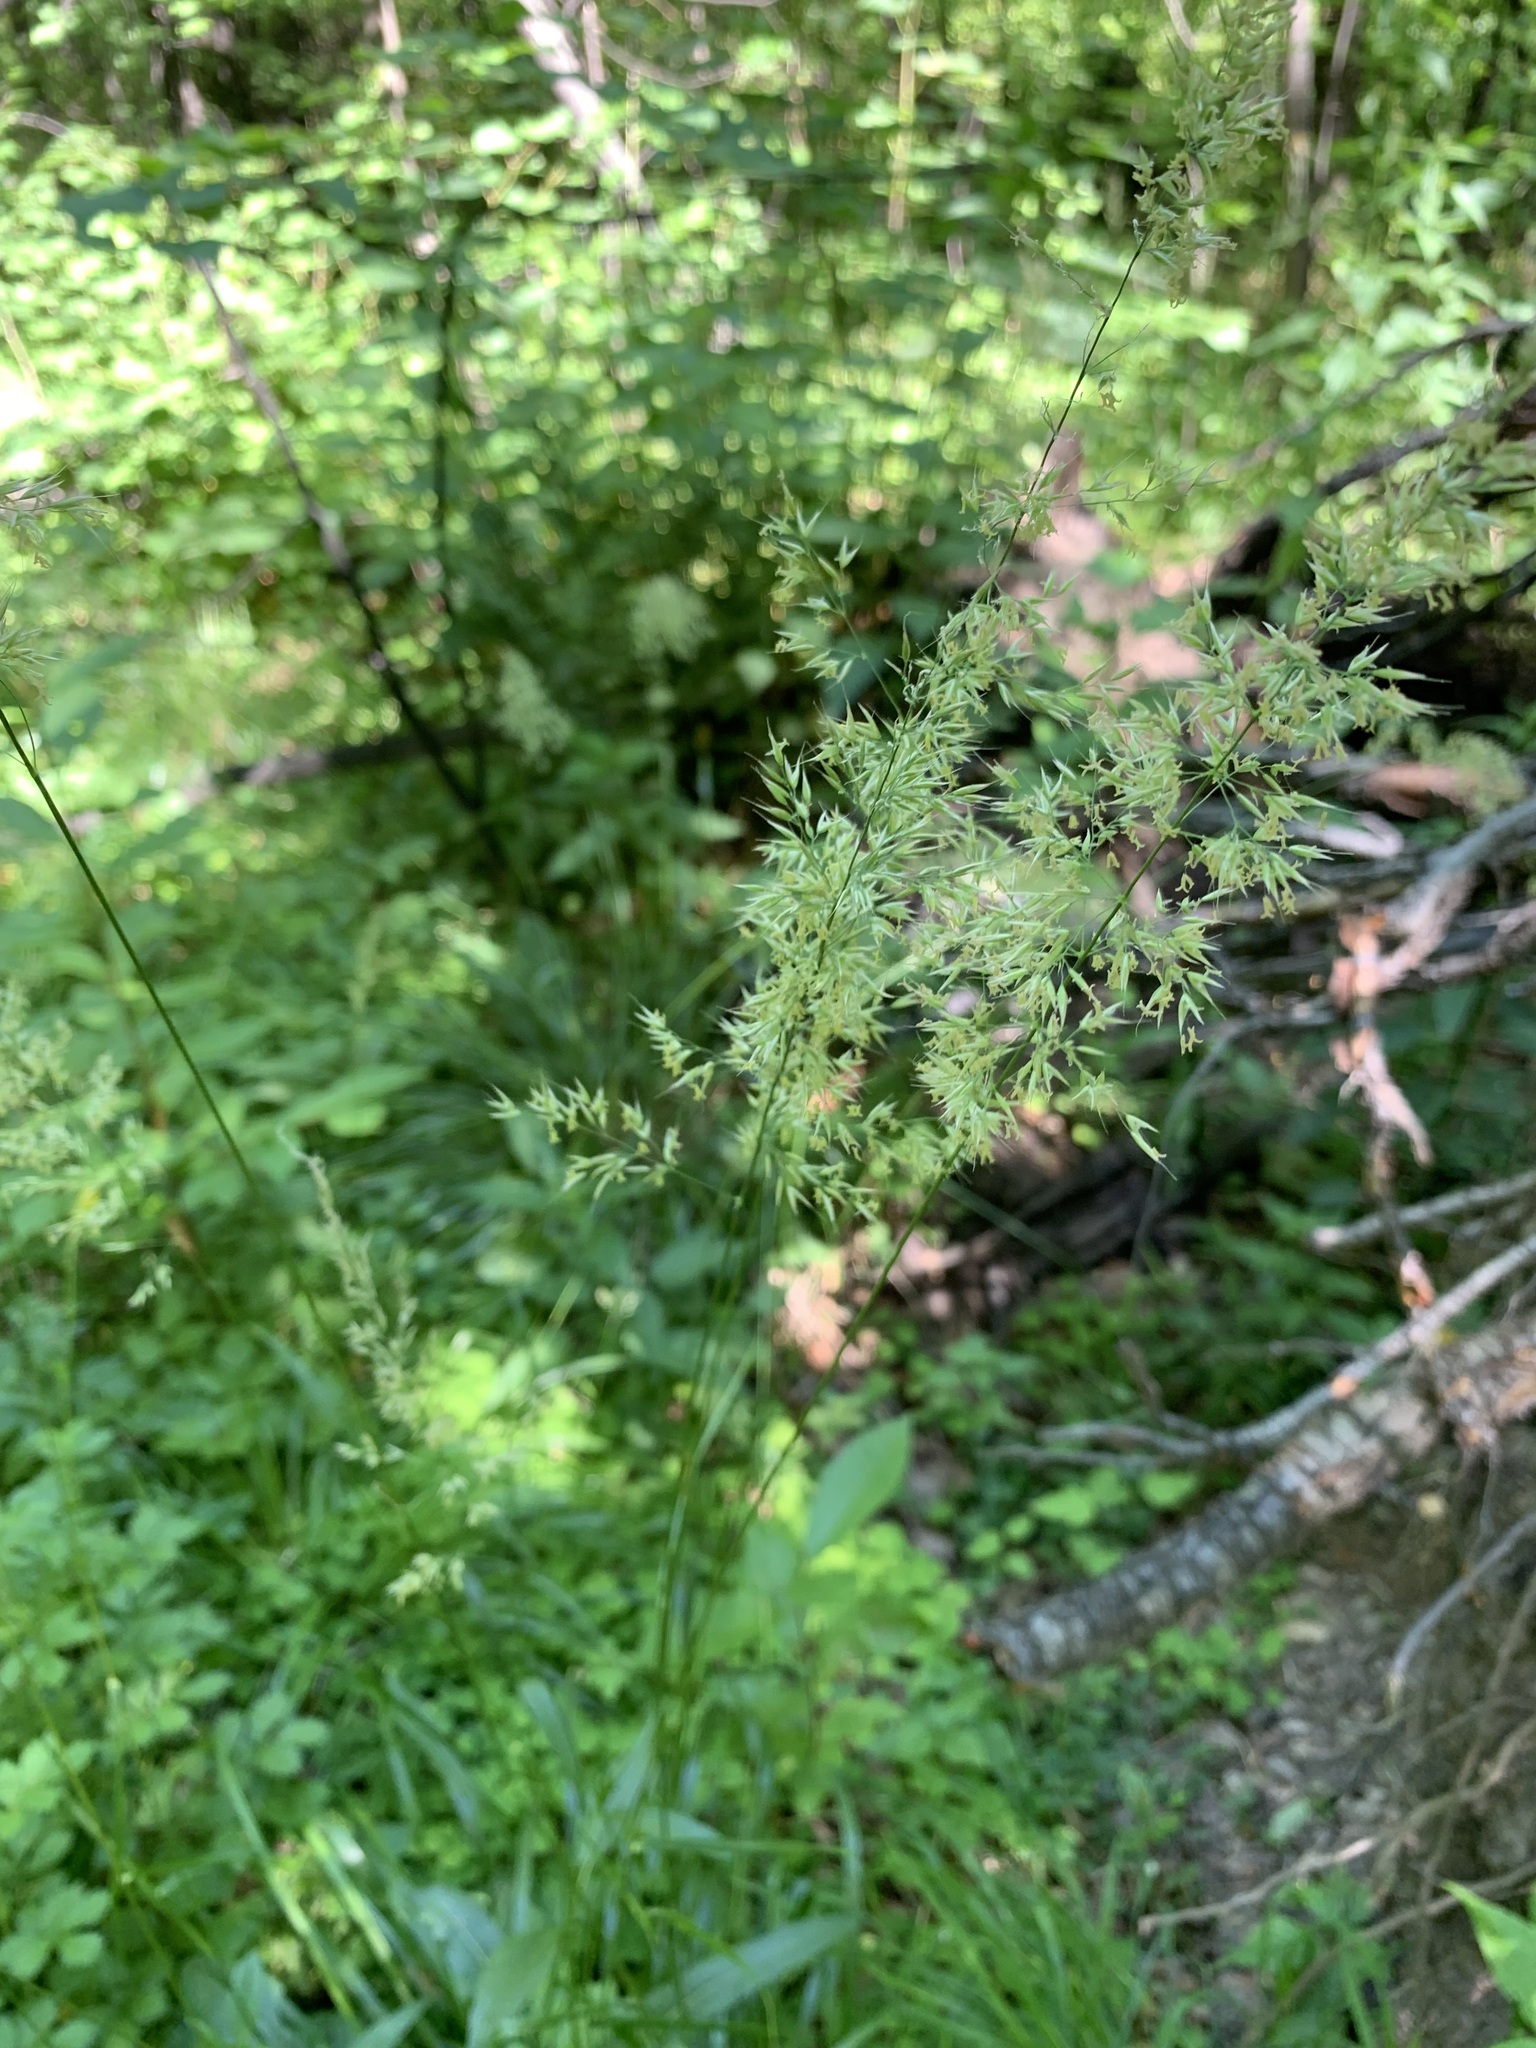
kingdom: Plantae
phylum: Tracheophyta
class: Liliopsida
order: Poales
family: Poaceae
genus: Calamagrostis
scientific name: Calamagrostis arundinacea
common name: Metskastik
